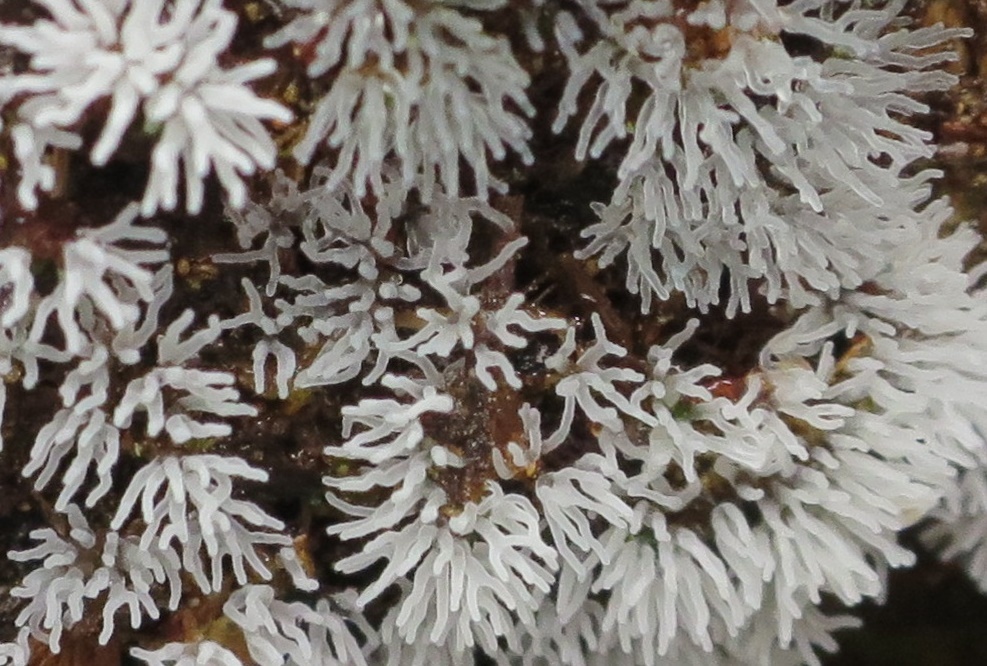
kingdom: Protozoa
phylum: Mycetozoa
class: Protosteliomycetes
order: Ceratiomyxales
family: Ceratiomyxaceae
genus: Ceratiomyxa
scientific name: Ceratiomyxa fruticulosa
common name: Honeycomb coral slime mold
